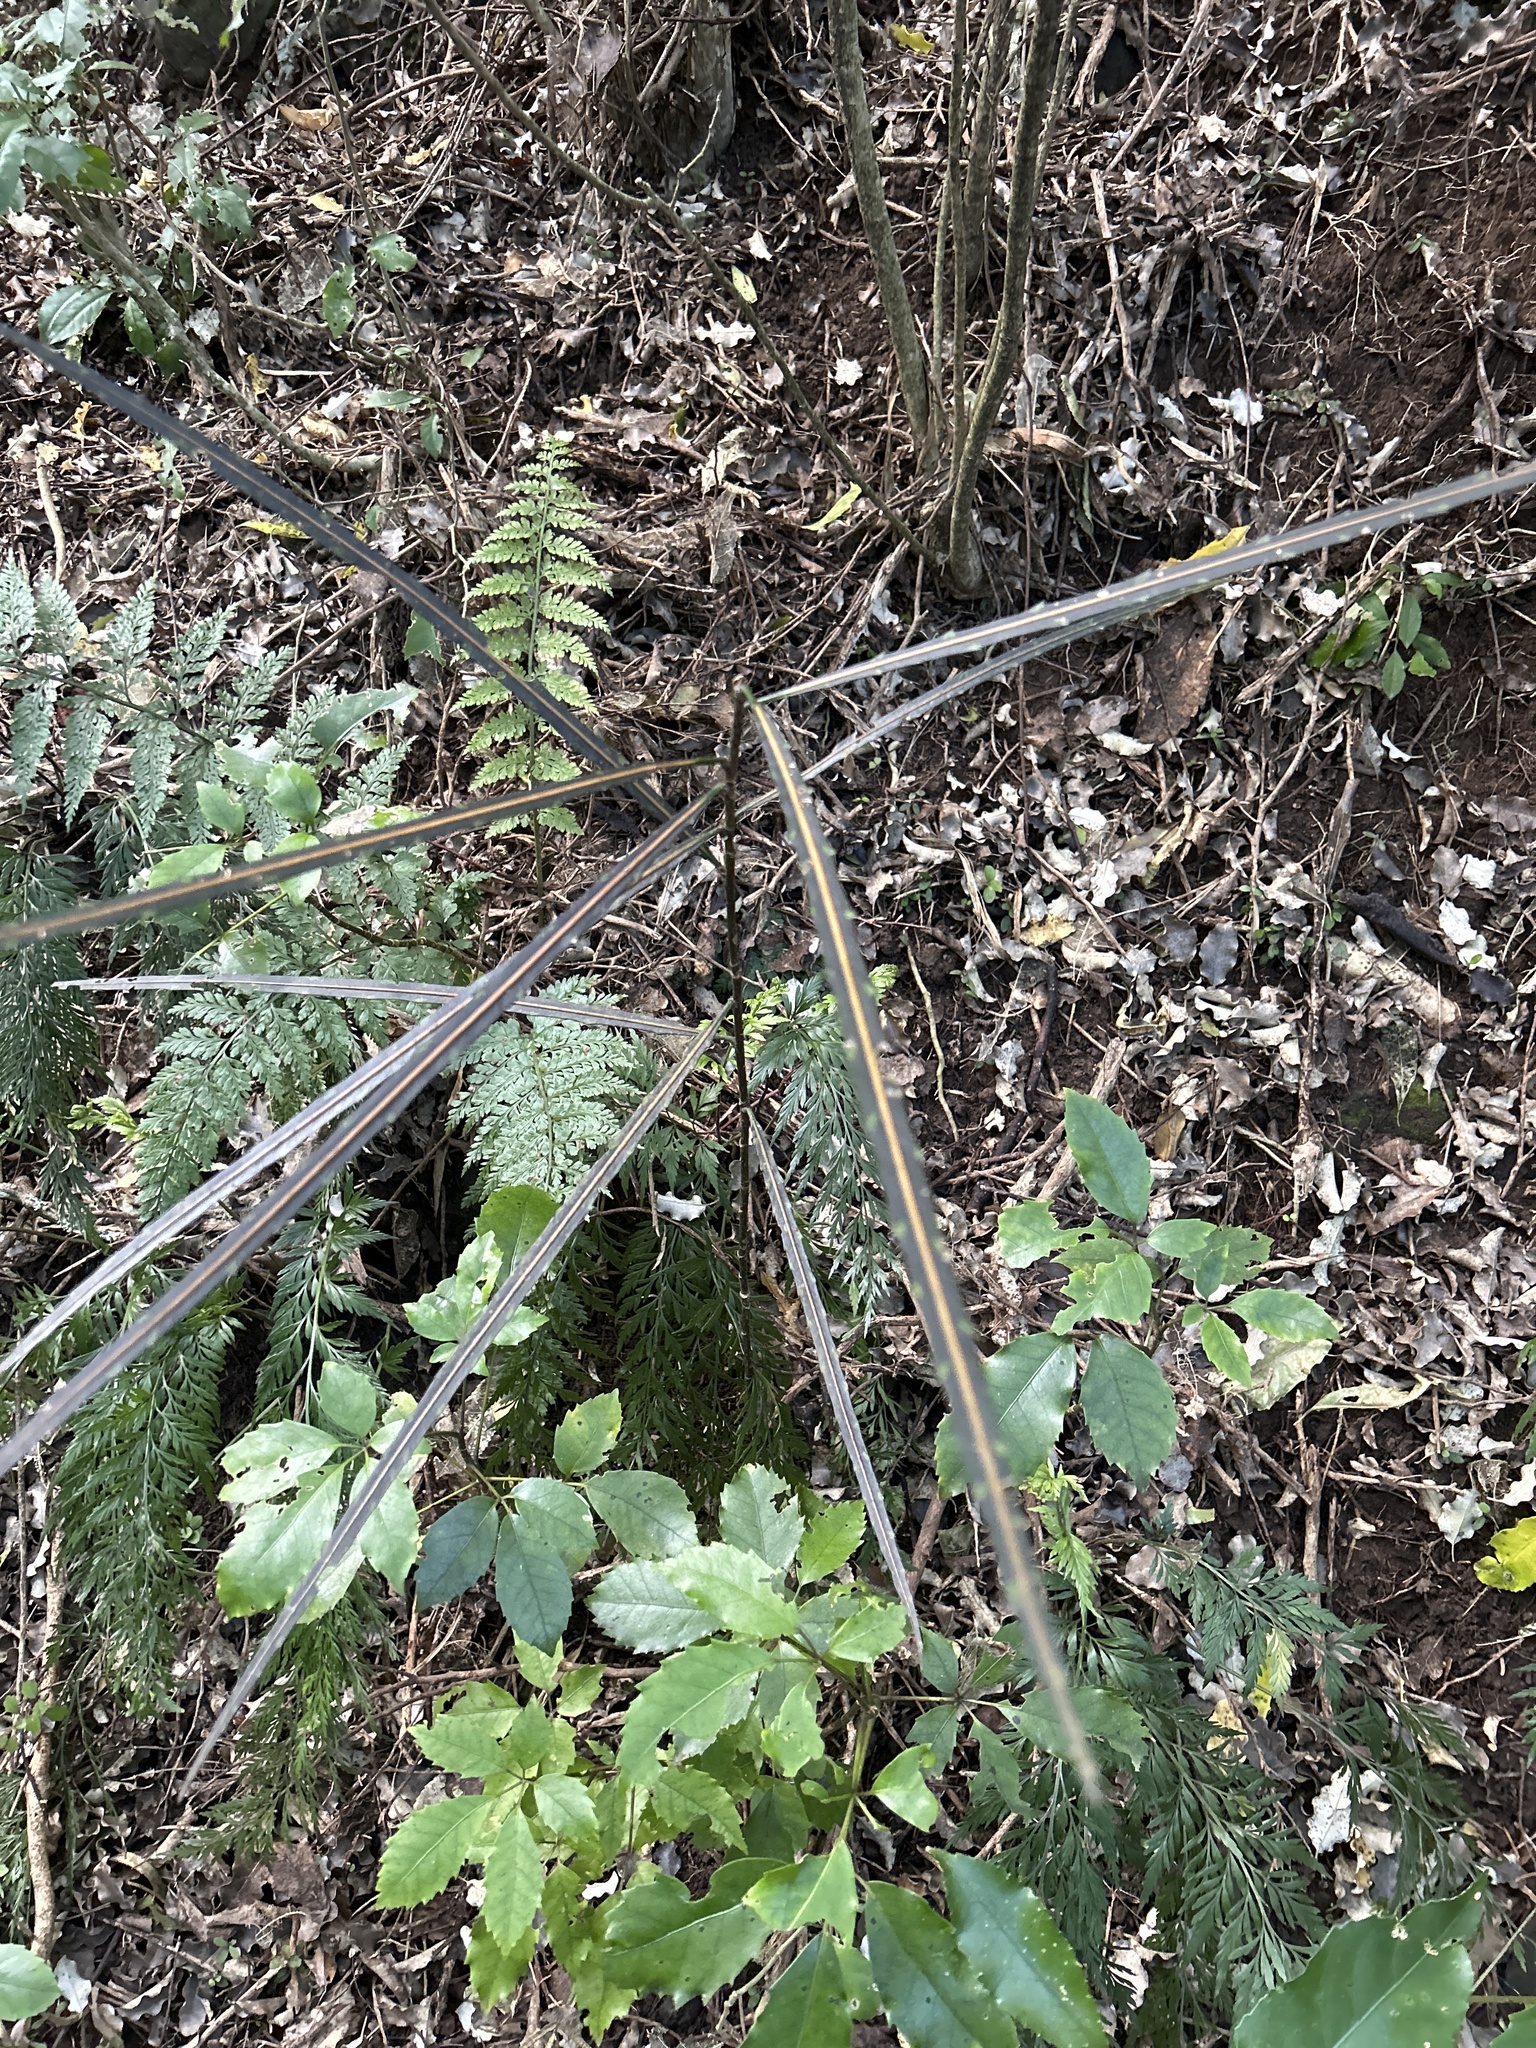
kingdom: Plantae
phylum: Tracheophyta
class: Magnoliopsida
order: Apiales
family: Araliaceae
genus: Pseudopanax
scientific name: Pseudopanax crassifolius
